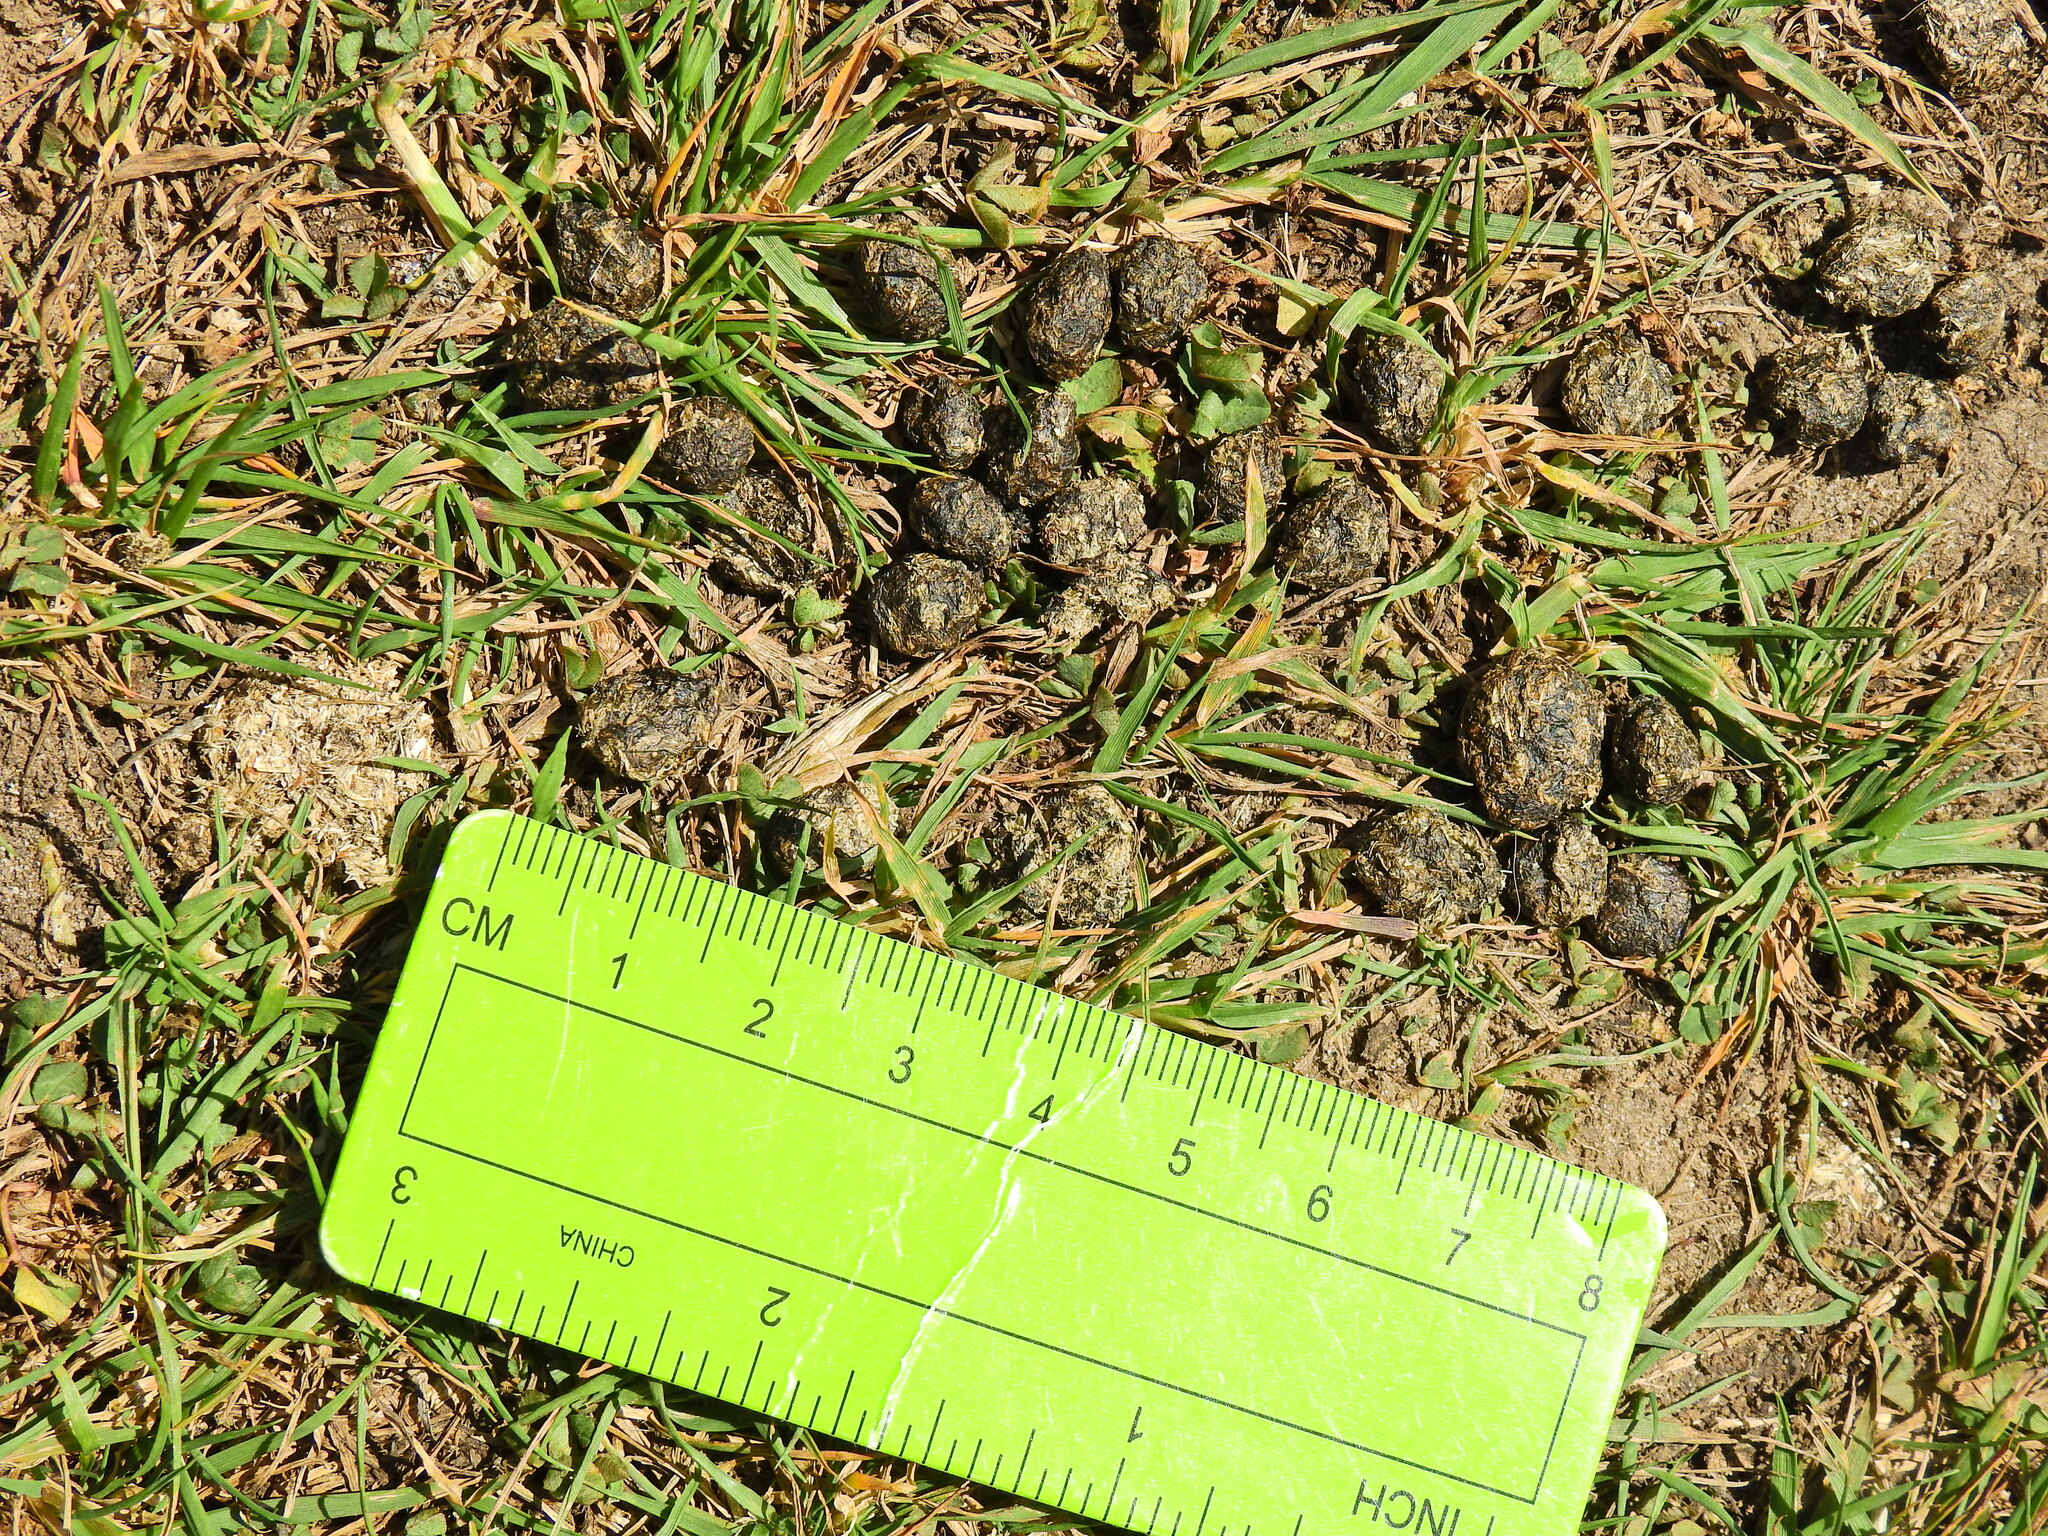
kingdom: Animalia
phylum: Chordata
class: Mammalia
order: Lagomorpha
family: Leporidae
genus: Oryctolagus
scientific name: Oryctolagus cuniculus
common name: European rabbit
